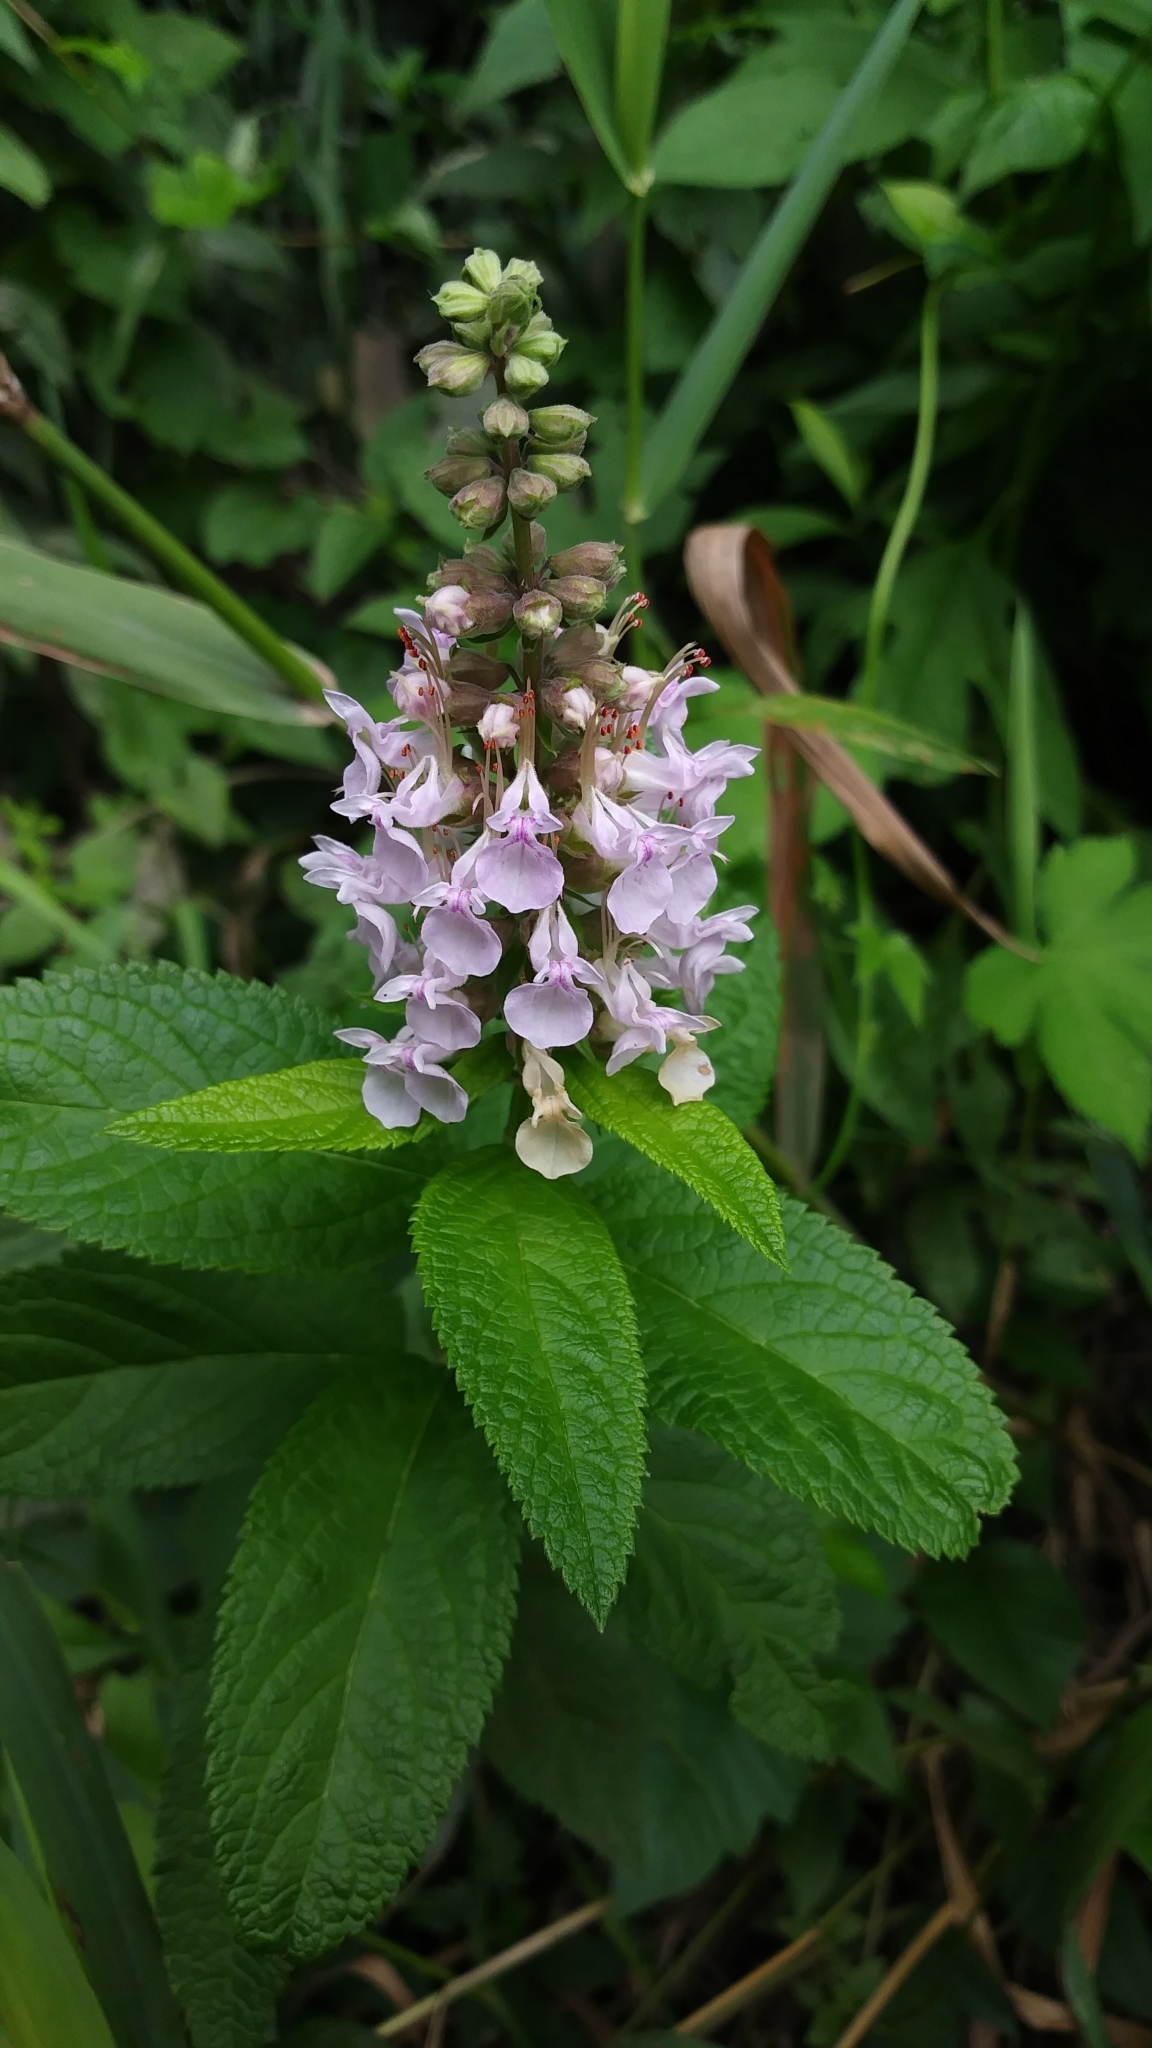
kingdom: Plantae
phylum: Tracheophyta
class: Magnoliopsida
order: Lamiales
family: Lamiaceae
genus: Teucrium
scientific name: Teucrium canadense
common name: American germander
